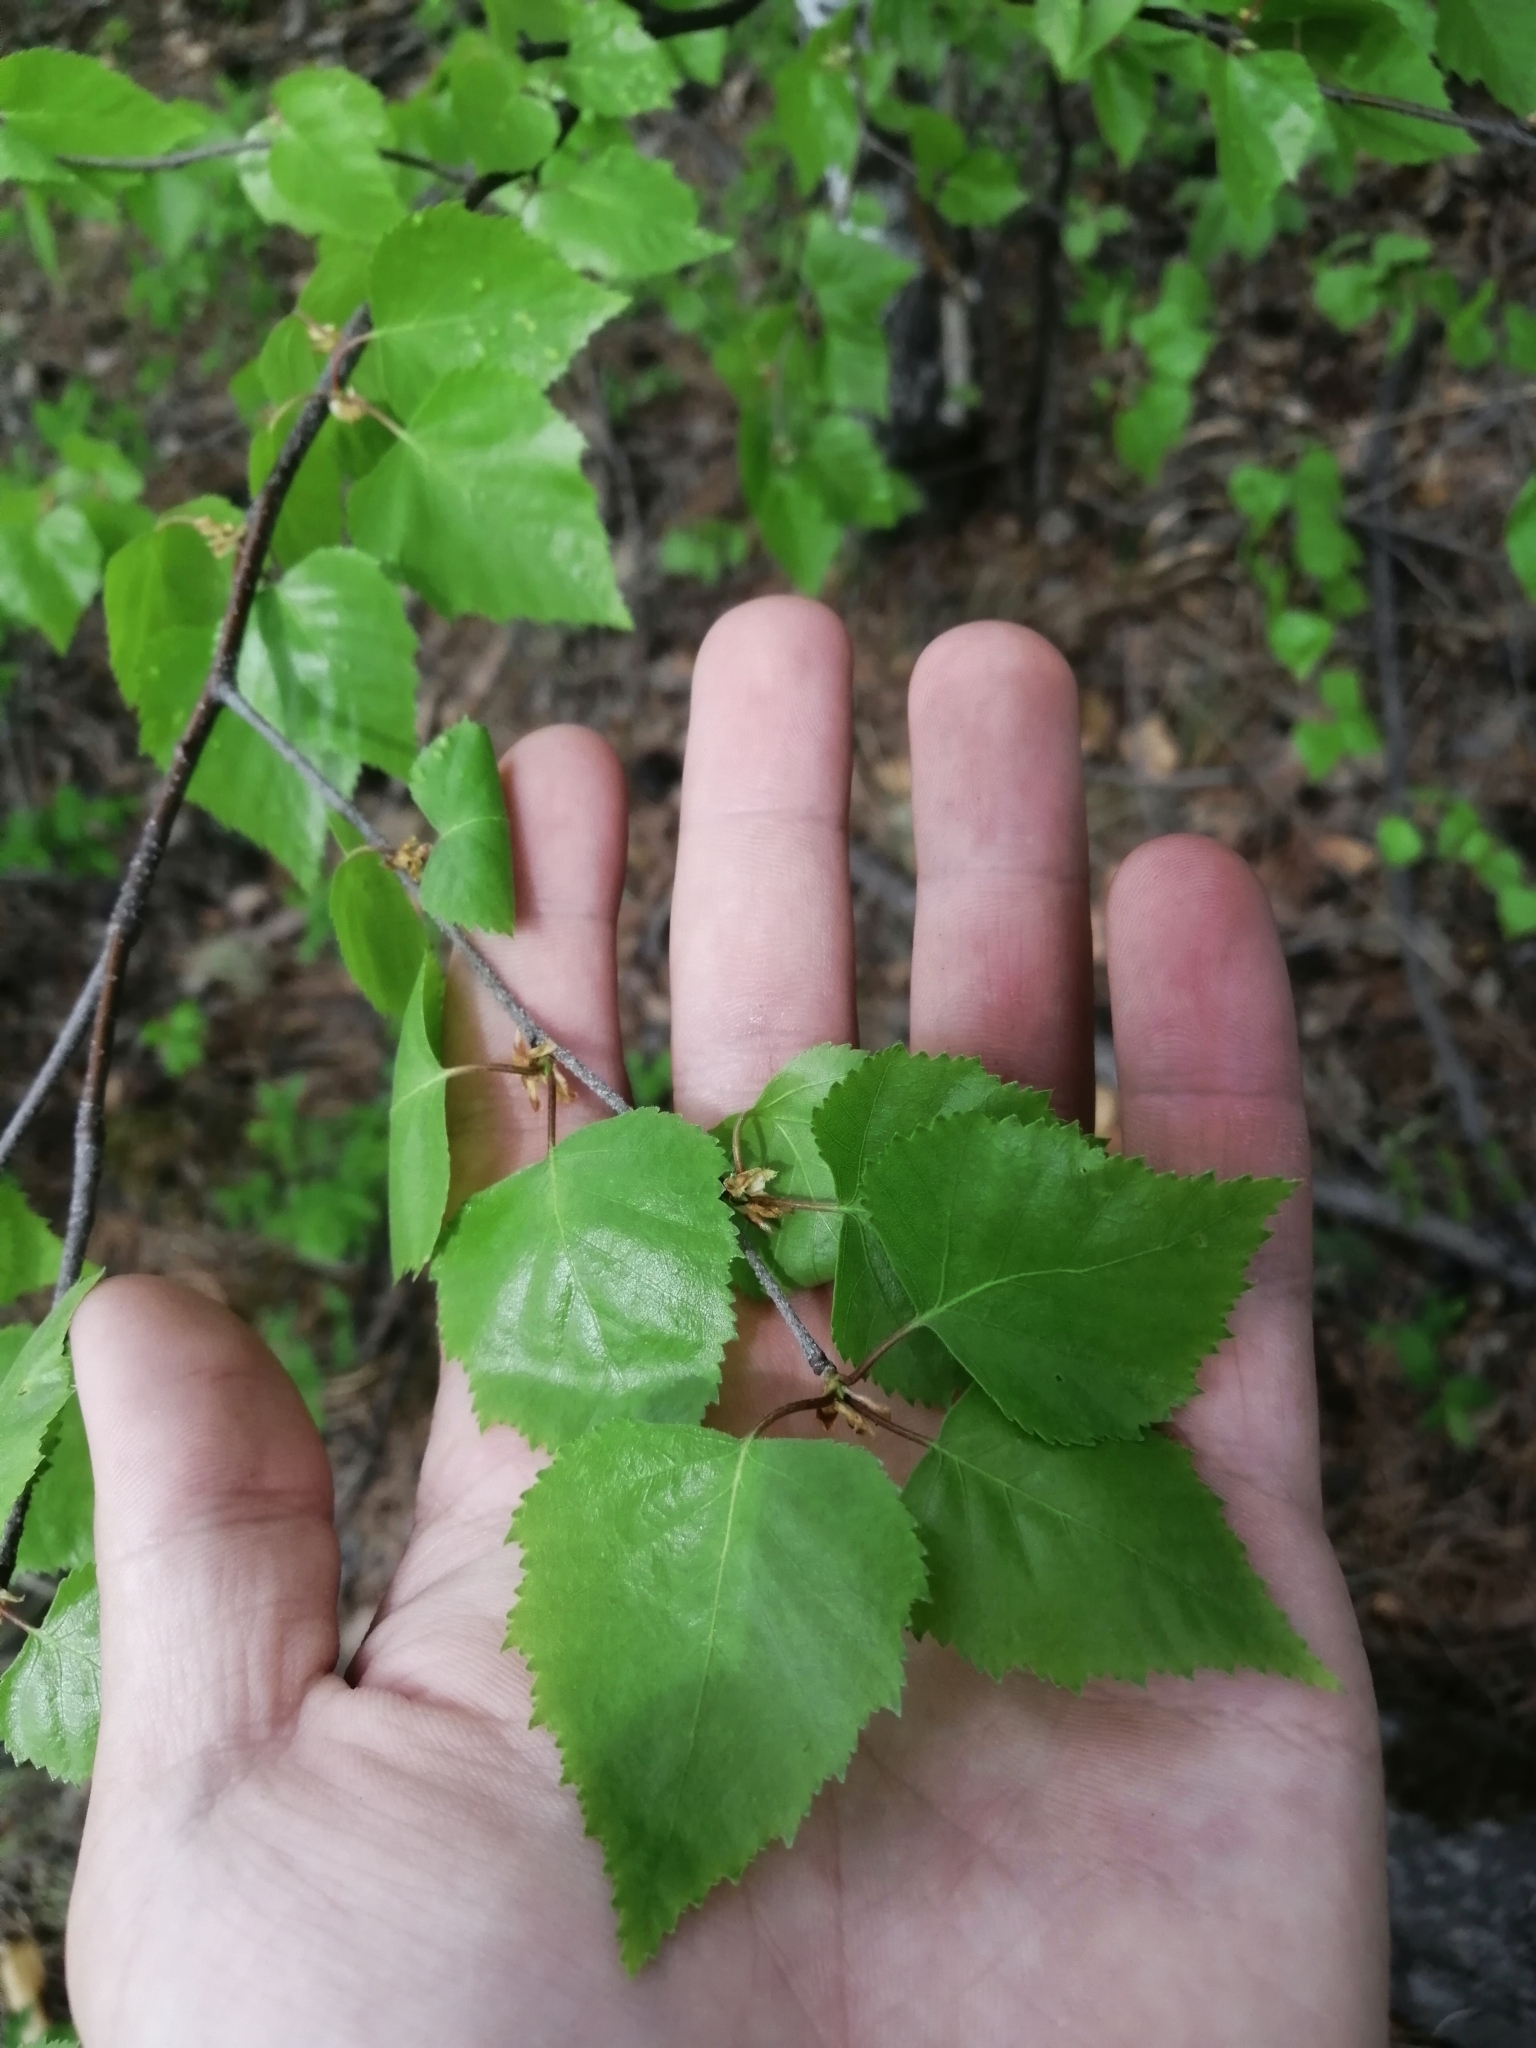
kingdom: Plantae
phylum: Tracheophyta
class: Magnoliopsida
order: Fagales
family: Betulaceae
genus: Betula
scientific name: Betula pendula
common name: Silver birch
